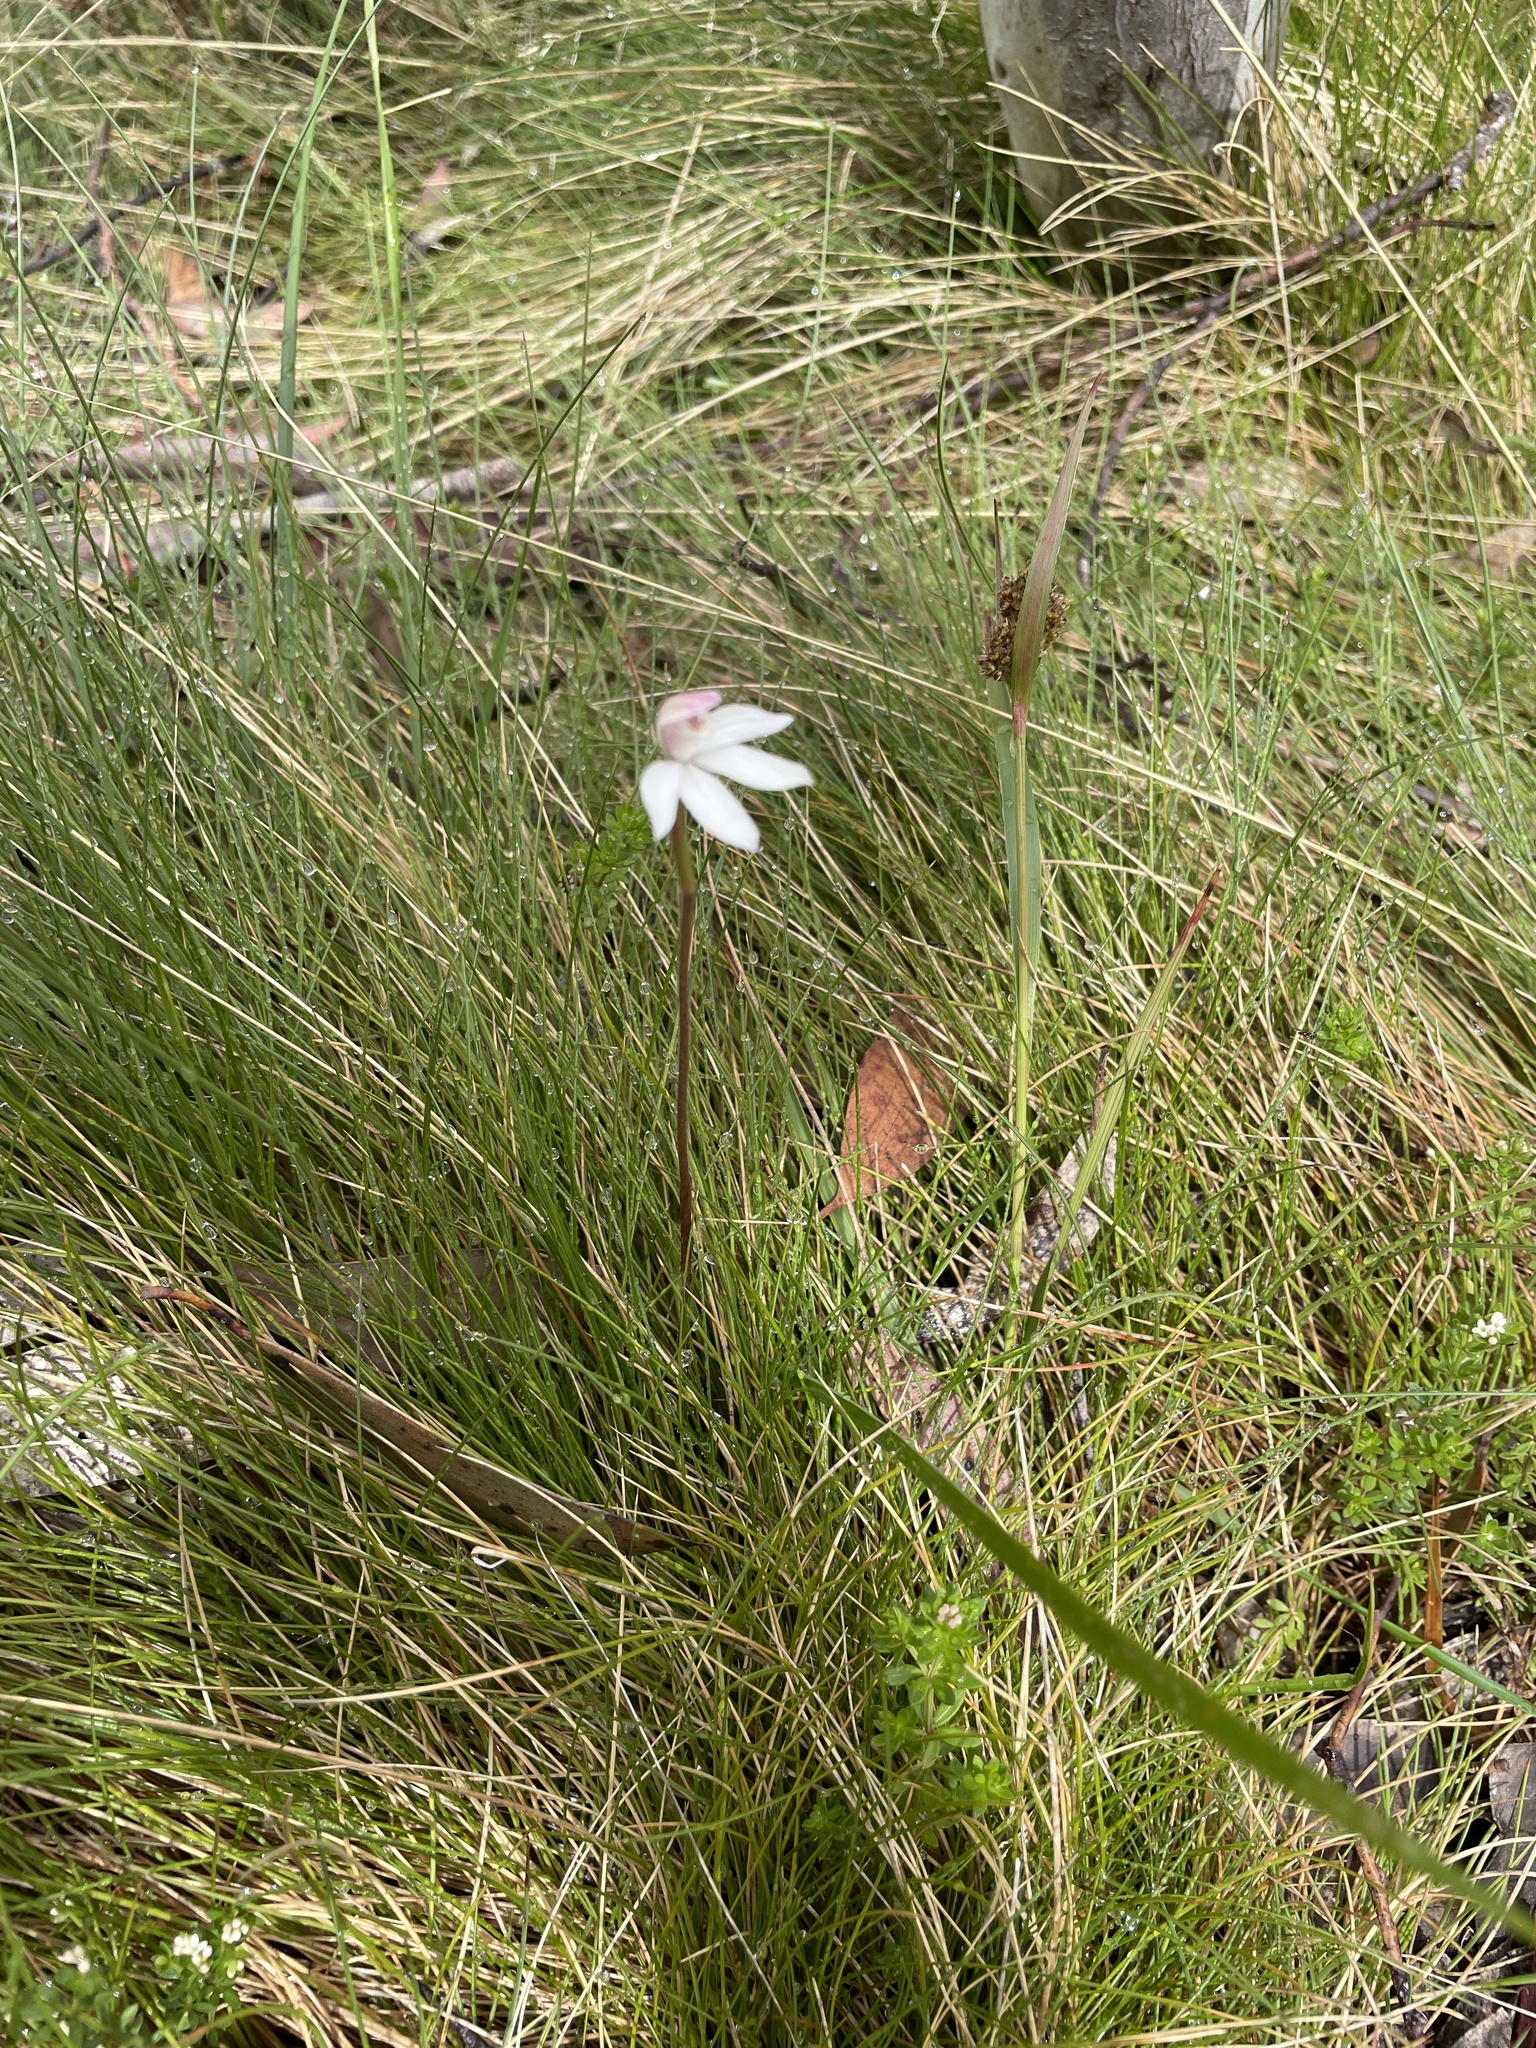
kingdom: Plantae
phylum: Tracheophyta
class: Liliopsida
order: Asparagales
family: Orchidaceae
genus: Caladenia
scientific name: Caladenia alpina
